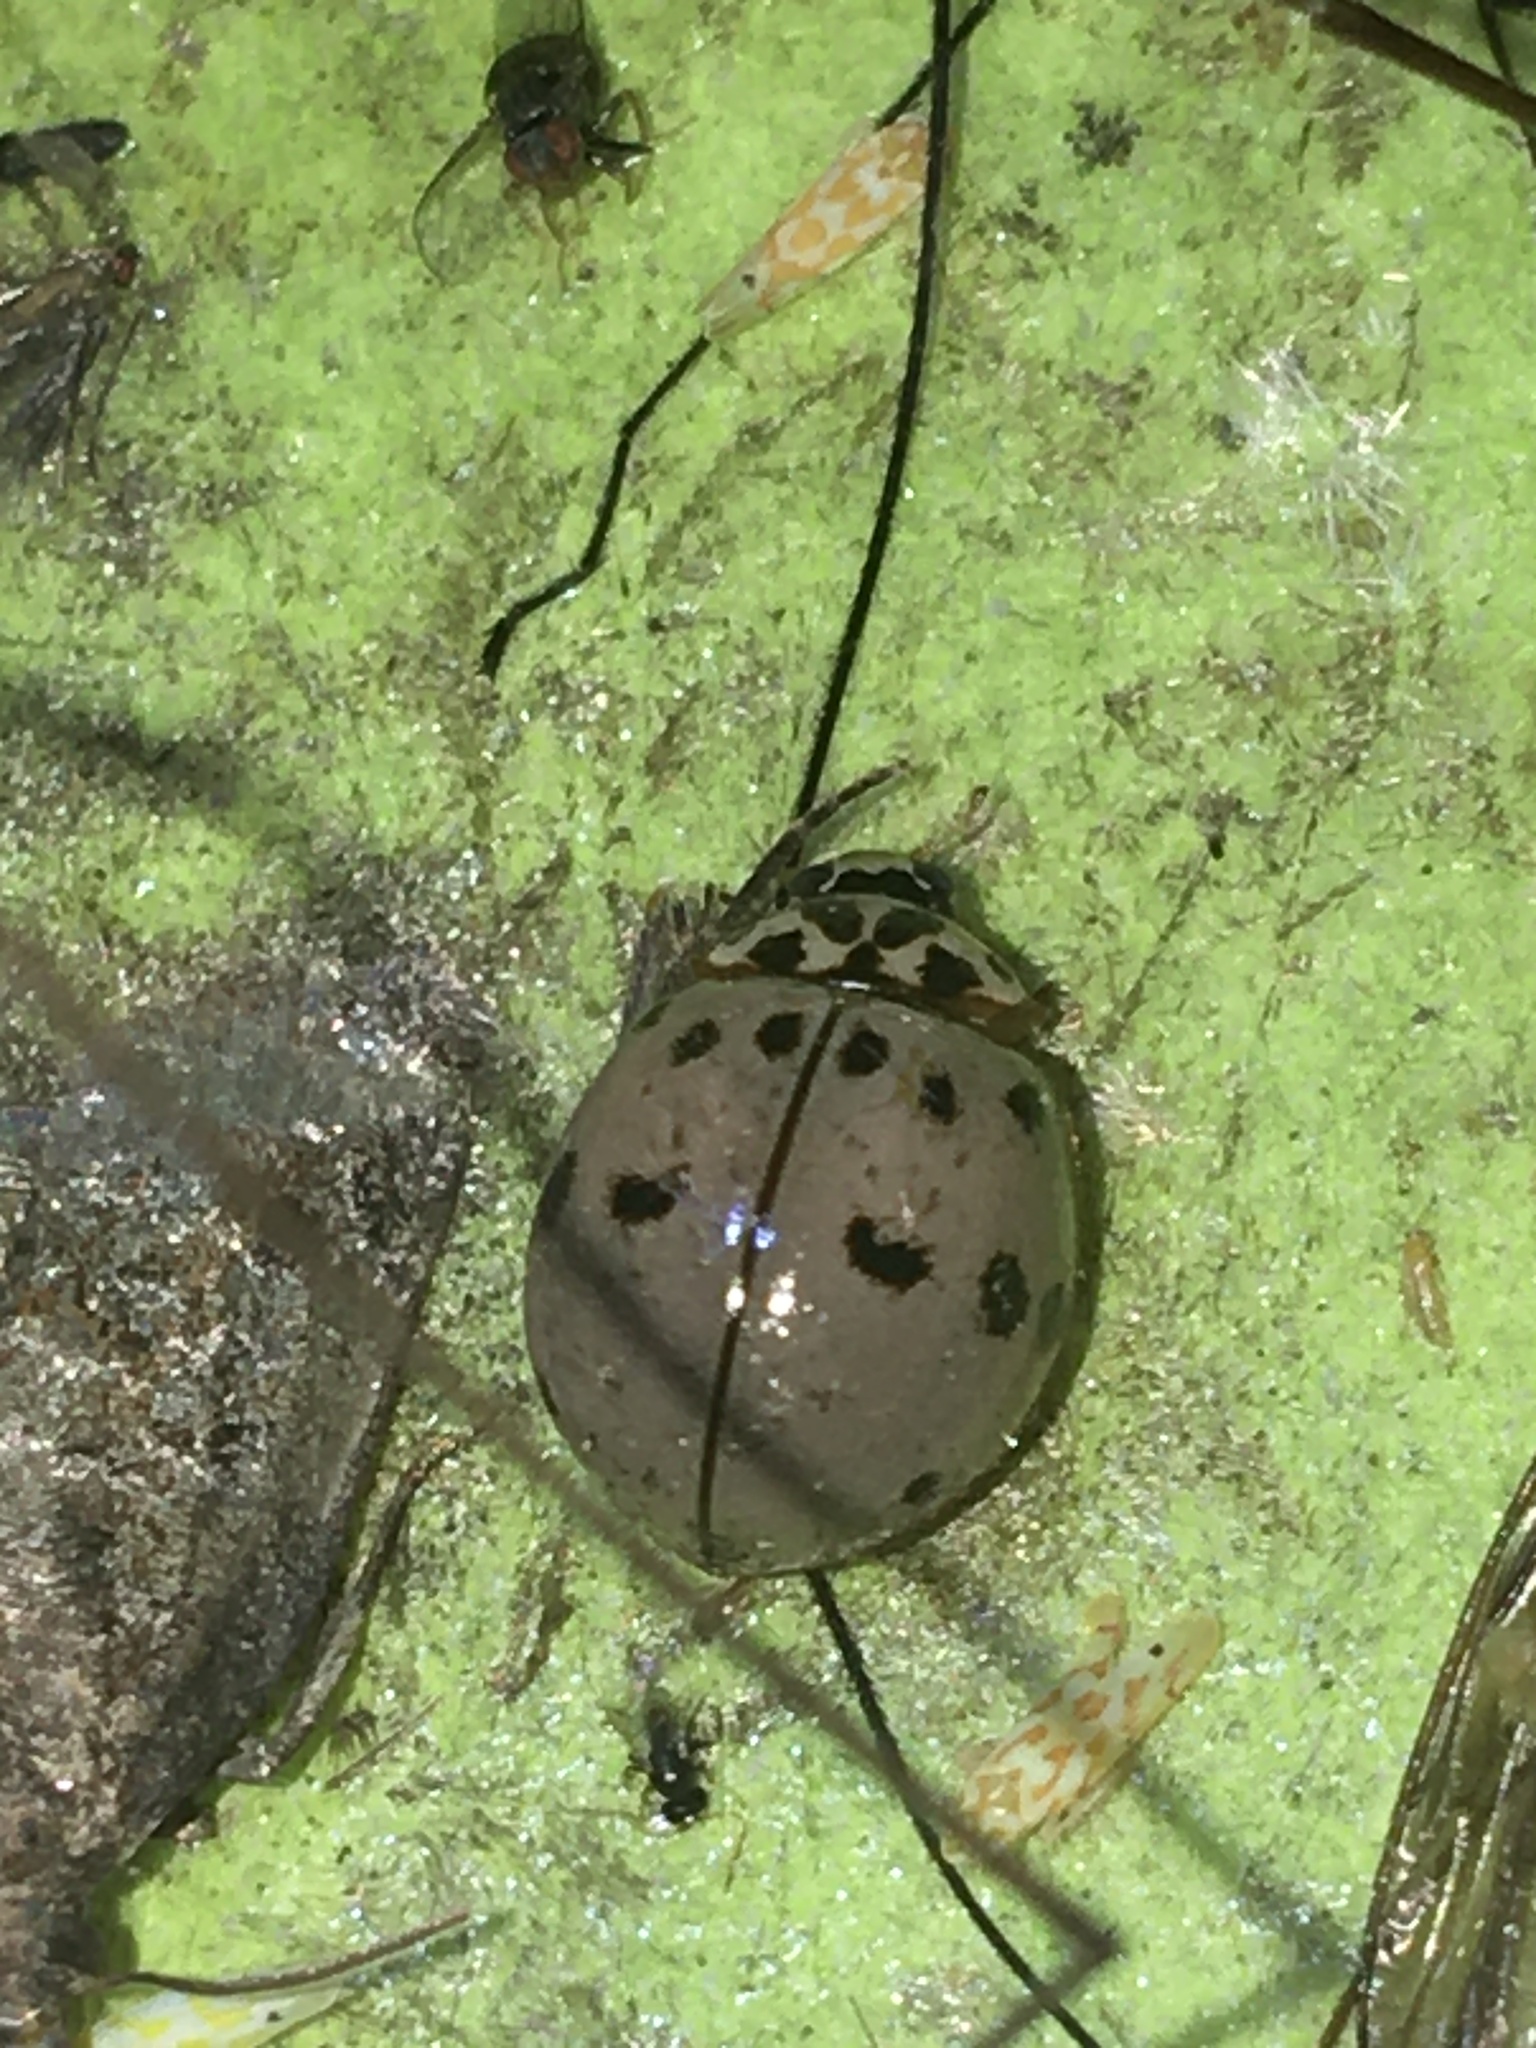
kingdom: Animalia
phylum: Arthropoda
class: Insecta
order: Coleoptera
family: Coccinellidae
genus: Olla
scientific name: Olla v-nigrum
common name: Ashy gray lady beetle
